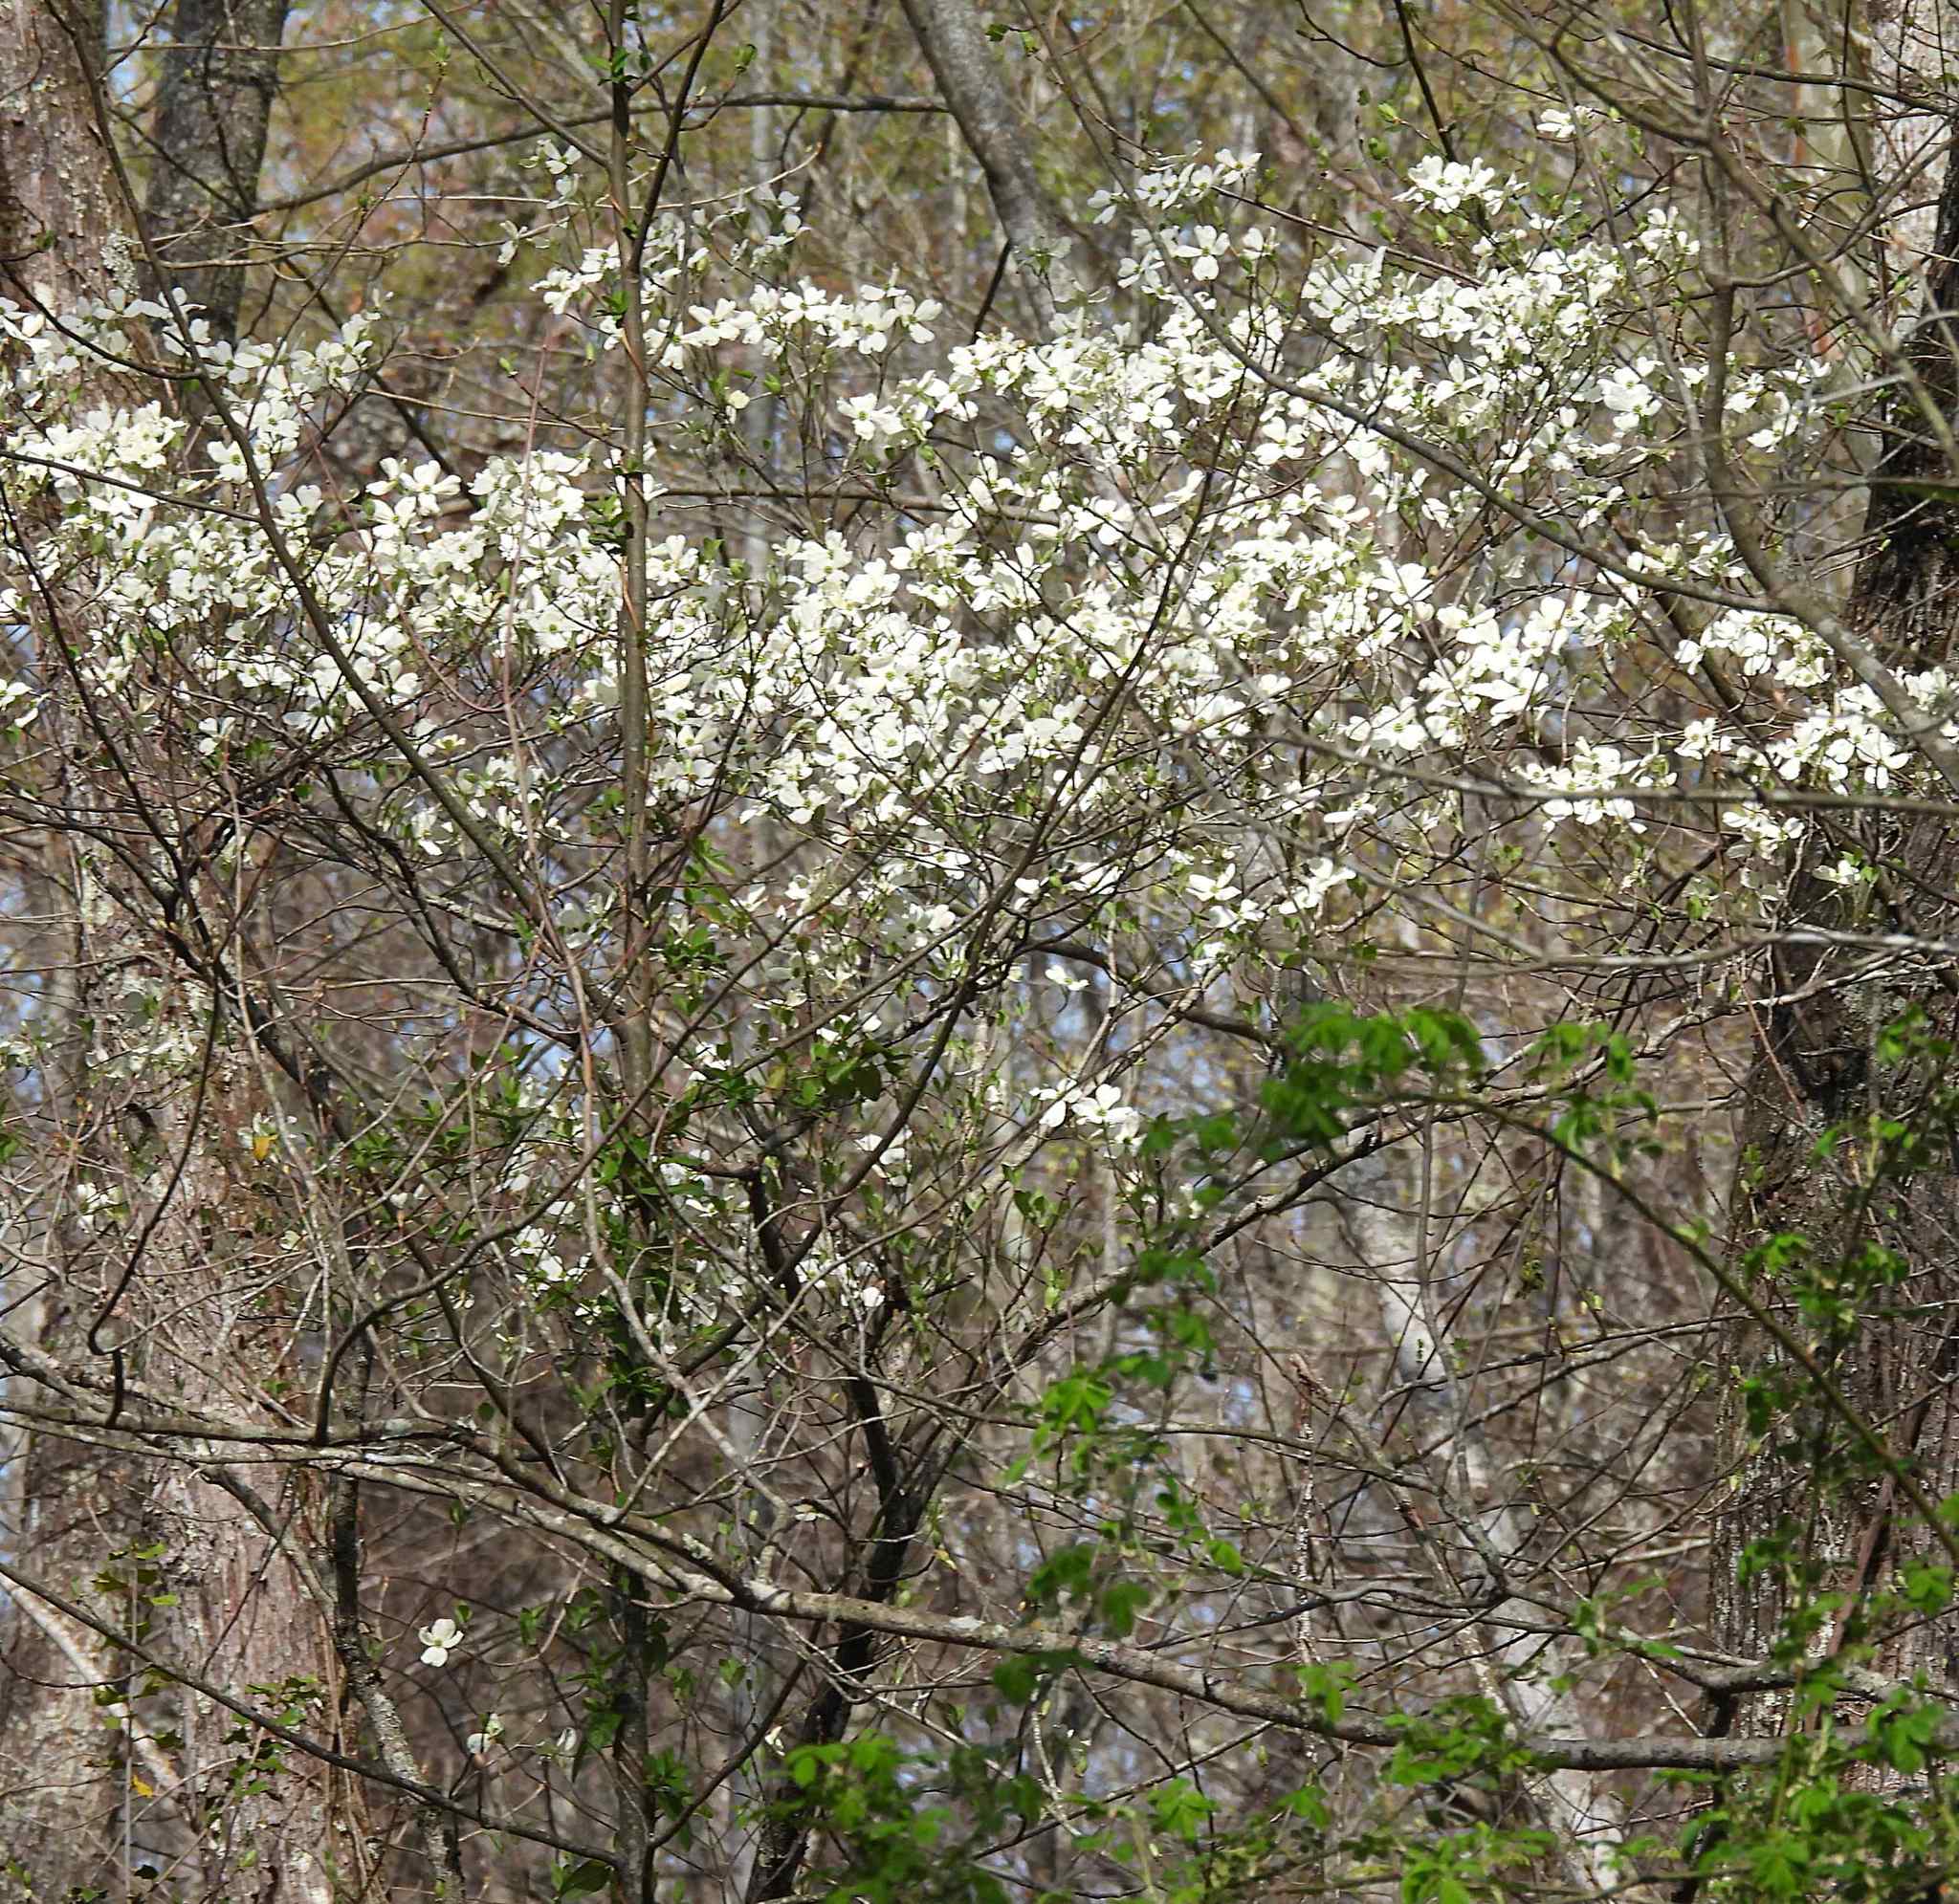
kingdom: Plantae
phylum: Tracheophyta
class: Magnoliopsida
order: Cornales
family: Cornaceae
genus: Cornus
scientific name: Cornus florida
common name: Flowering dogwood
